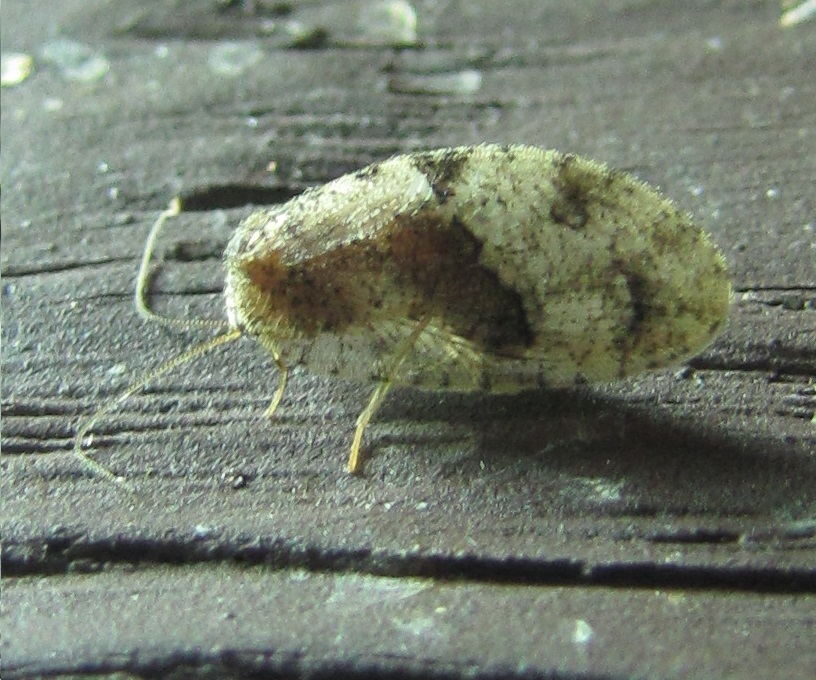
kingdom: Animalia
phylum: Arthropoda
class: Insecta
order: Neuroptera
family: Hemerobiidae
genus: Megalomus
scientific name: Megalomus moestus
